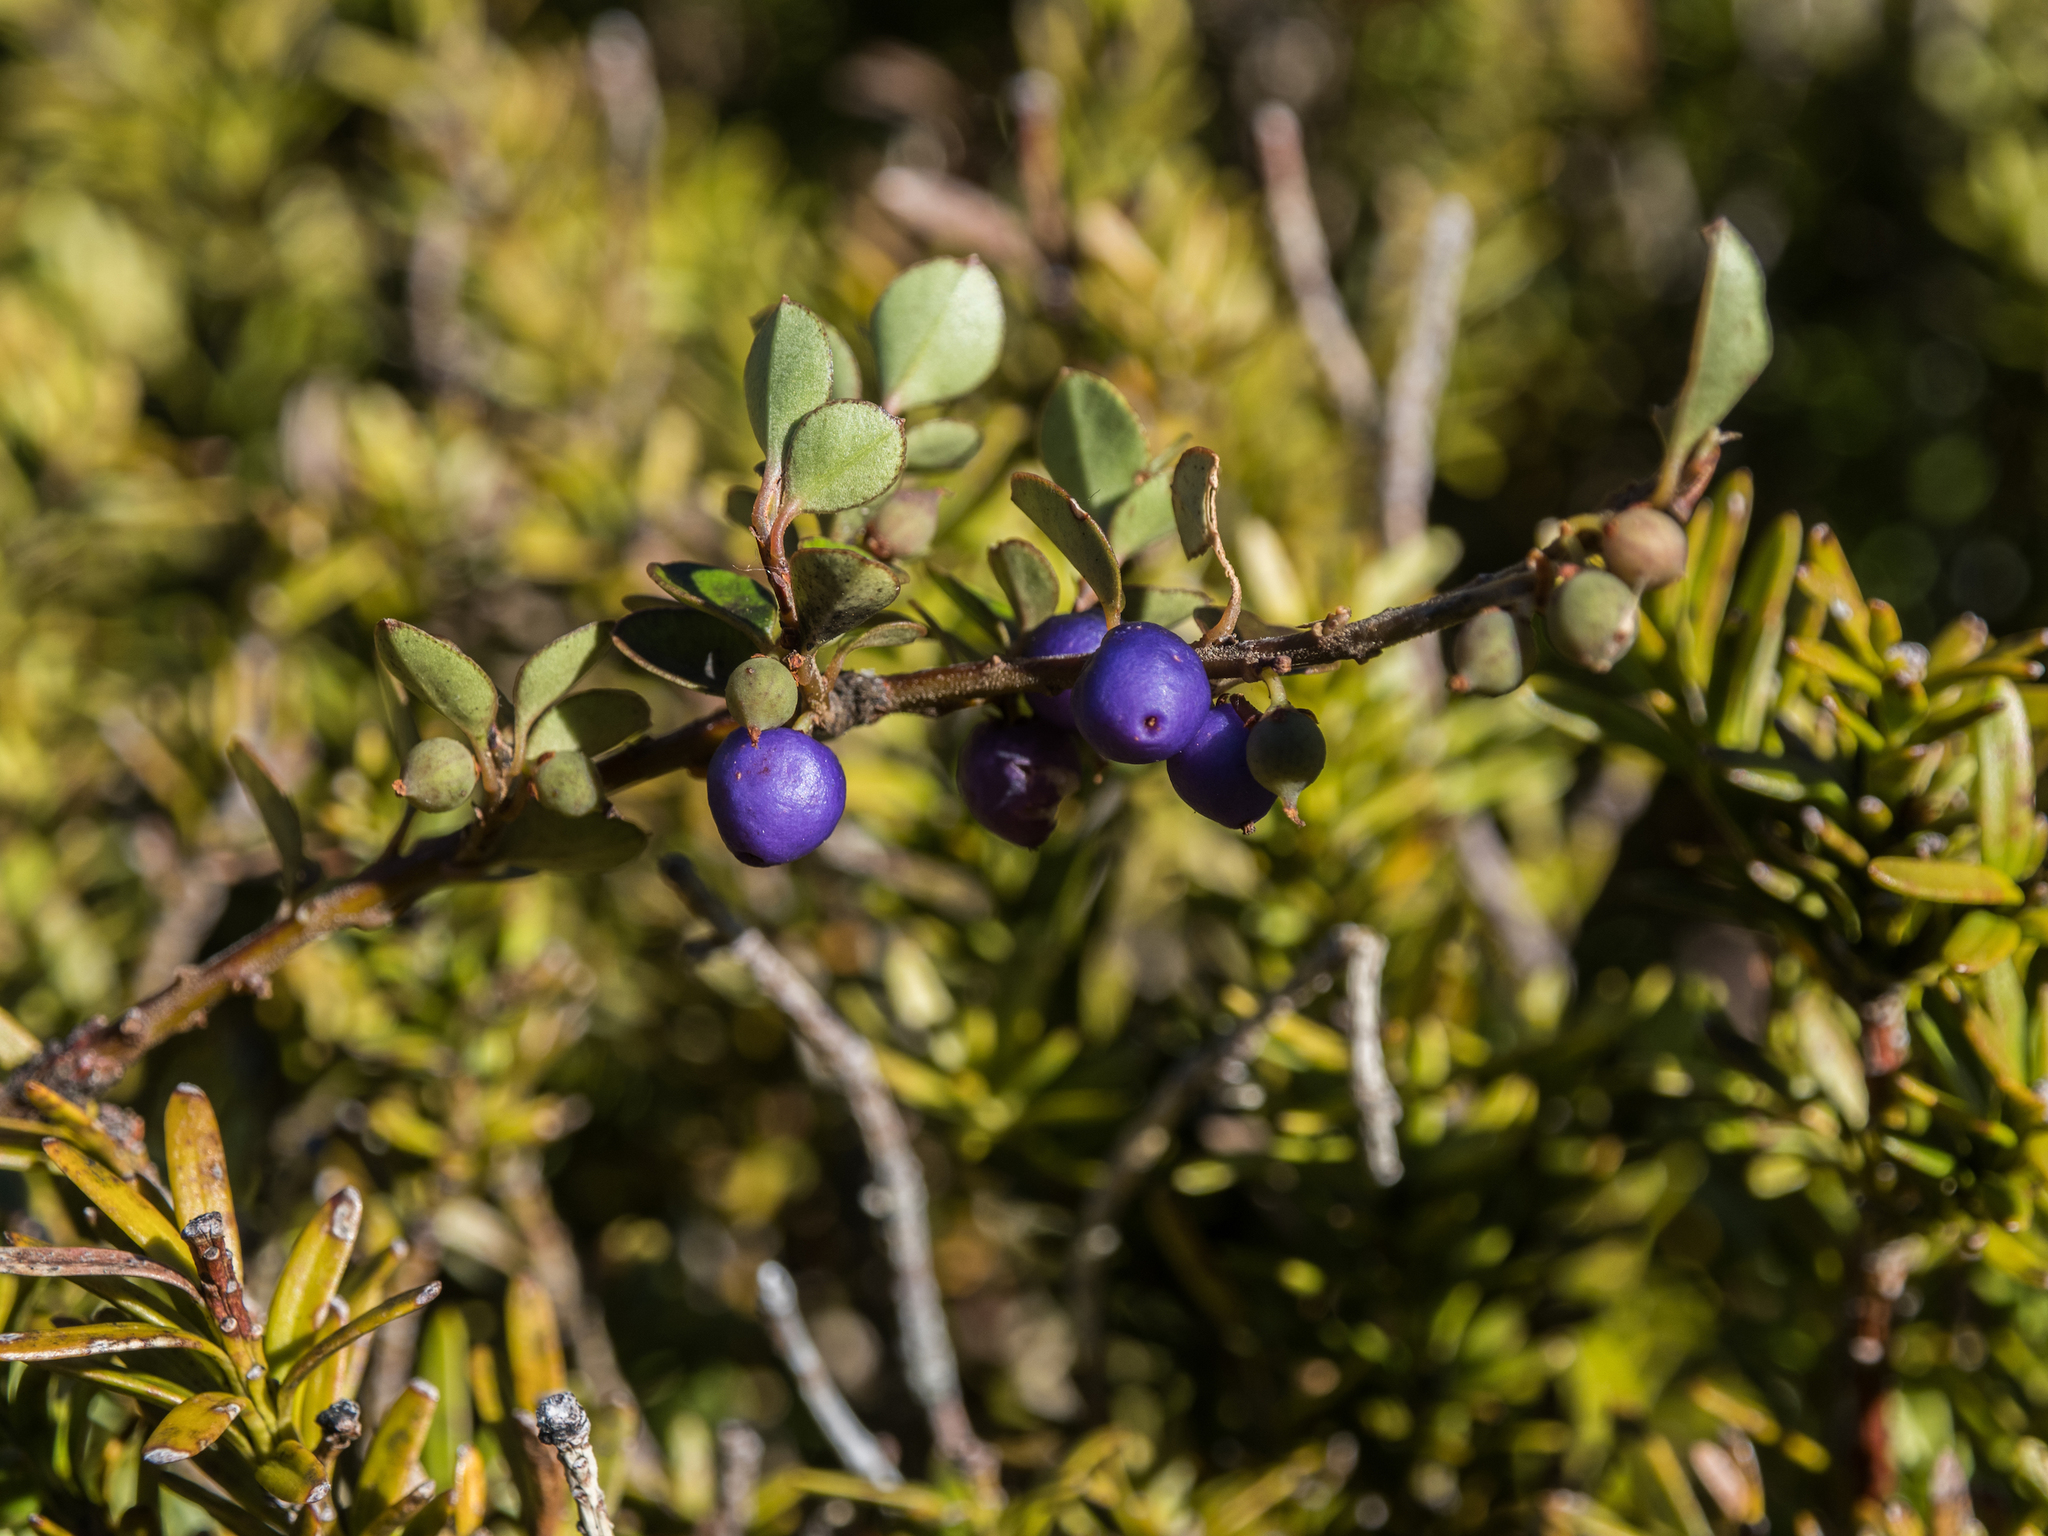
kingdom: Plantae
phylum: Tracheophyta
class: Magnoliopsida
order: Ericales
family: Primulaceae
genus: Myrsine
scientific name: Myrsine nummularia
